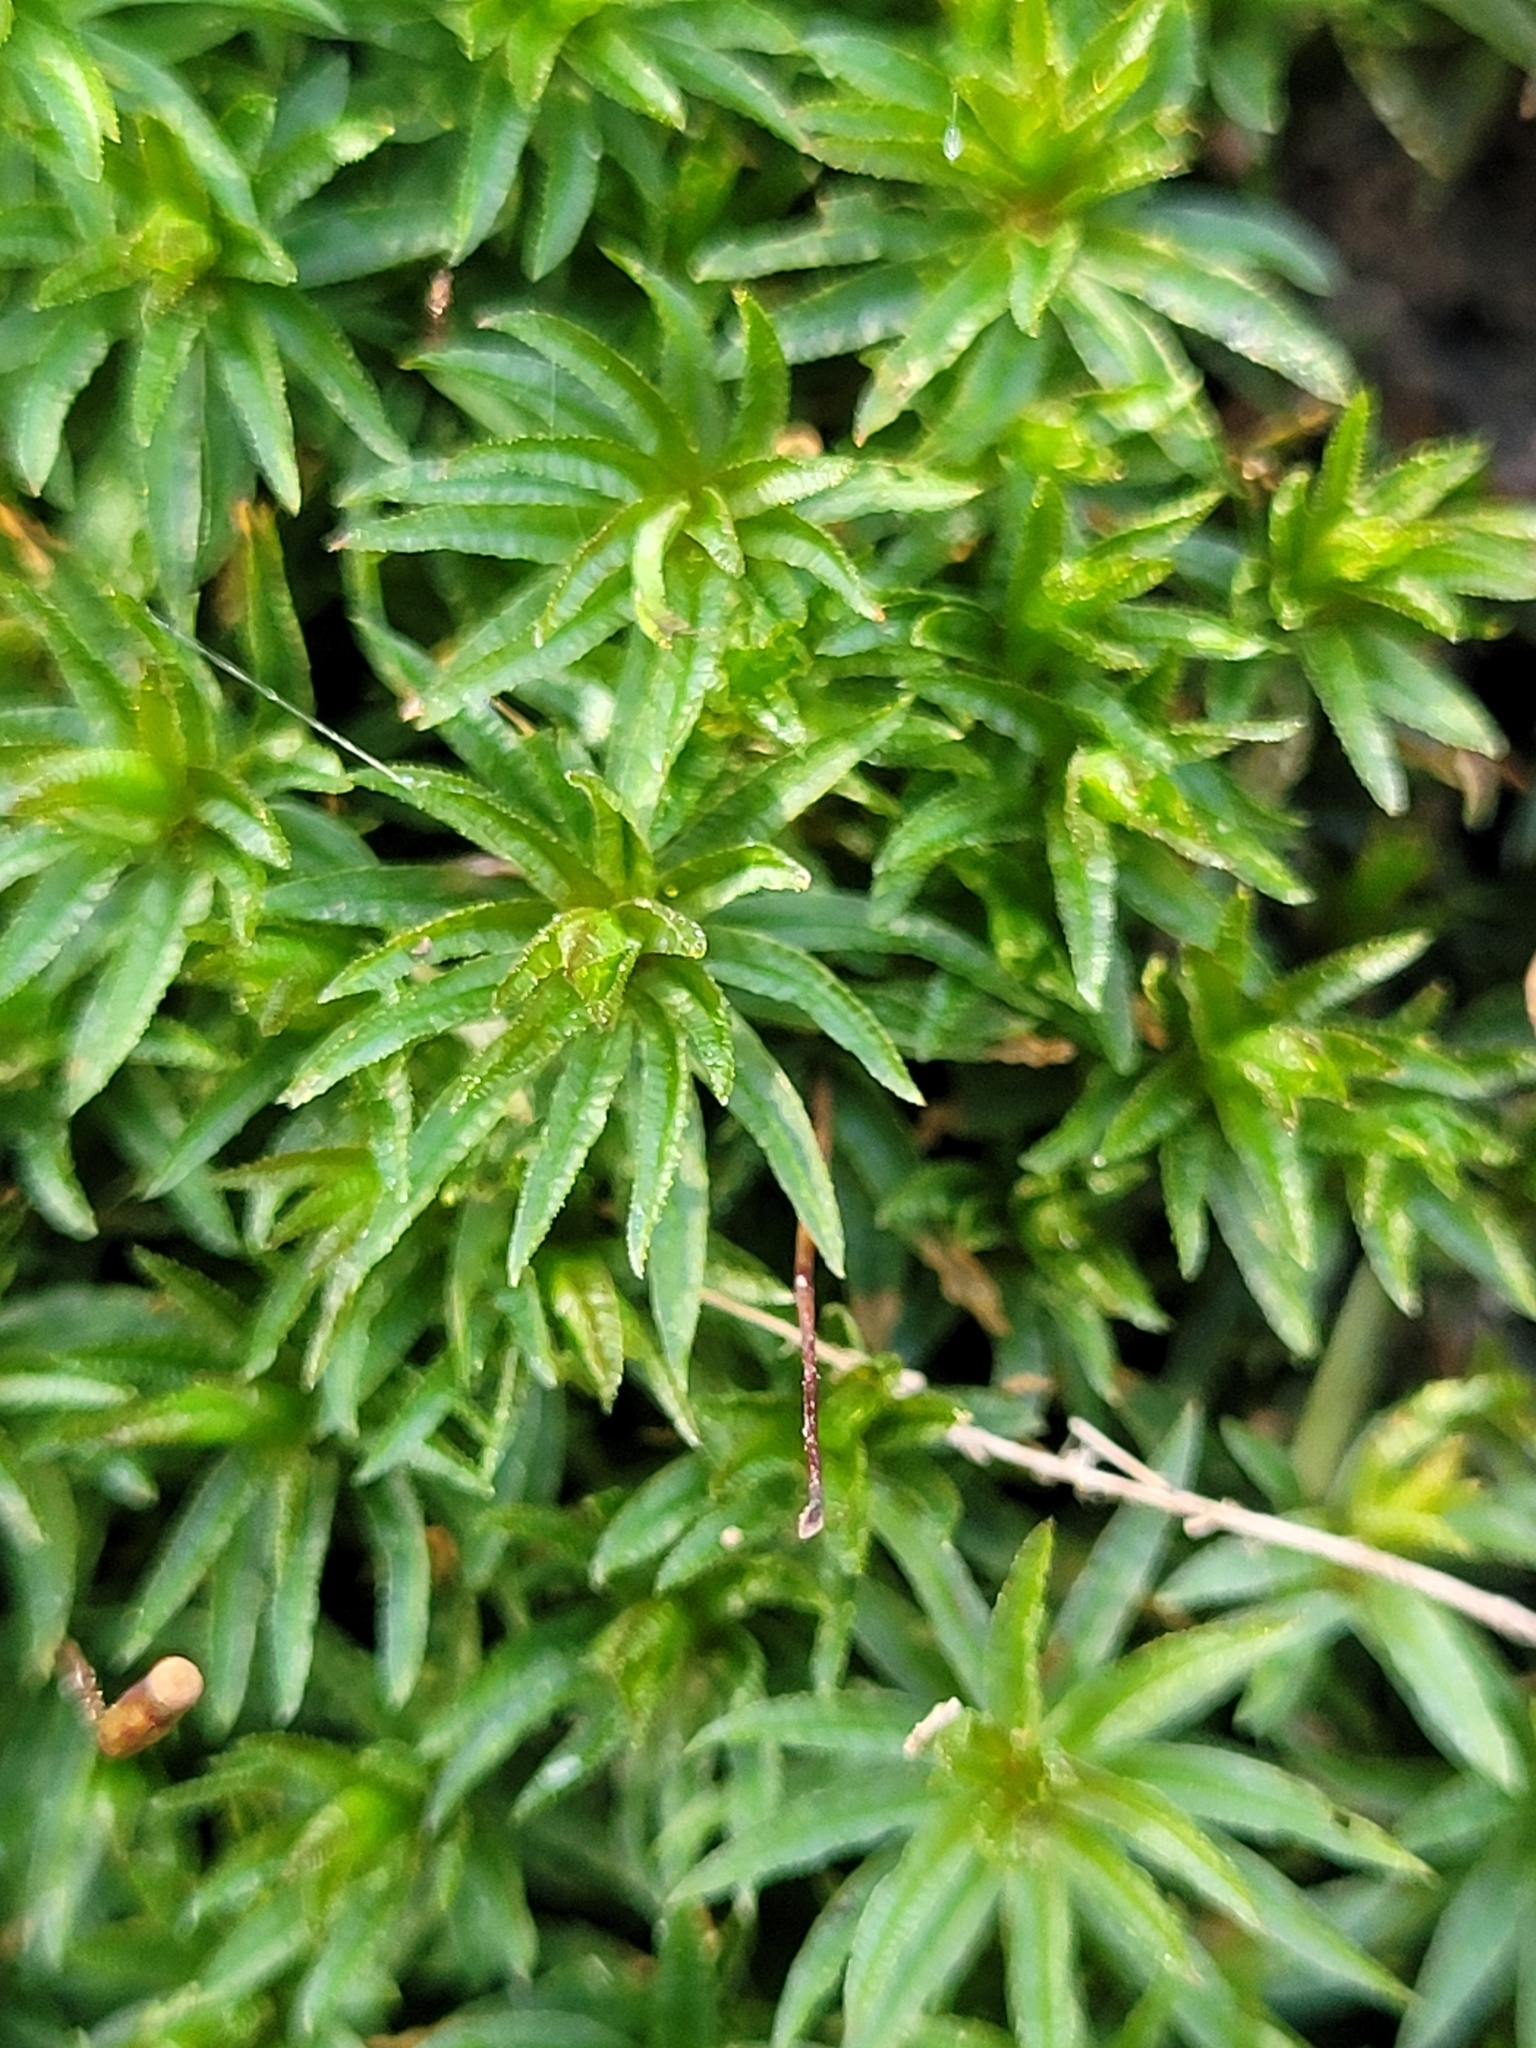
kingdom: Plantae
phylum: Bryophyta
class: Polytrichopsida
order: Polytrichales
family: Polytrichaceae
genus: Atrichum
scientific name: Atrichum undulatum
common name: Common smoothcap
